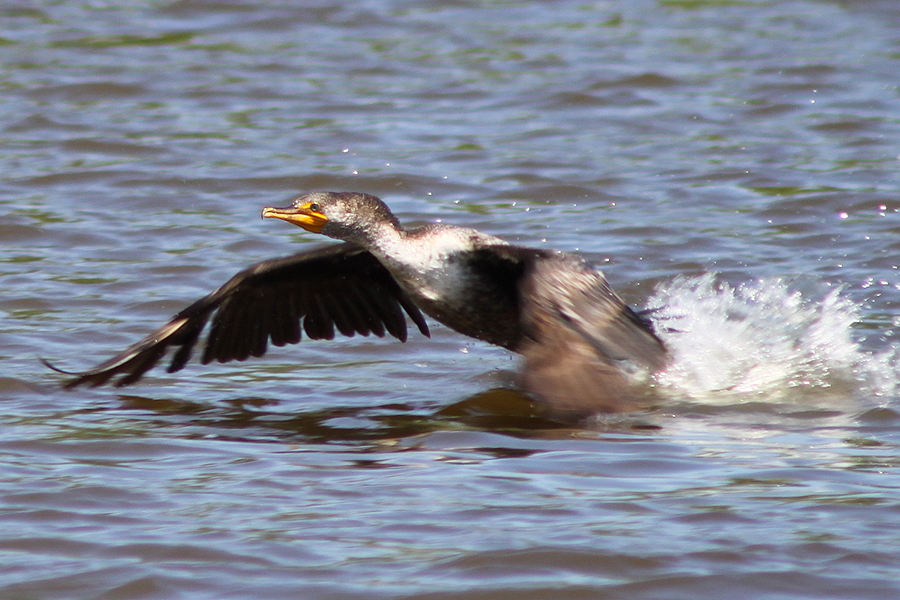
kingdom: Animalia
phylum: Chordata
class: Aves
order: Suliformes
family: Phalacrocoracidae
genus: Phalacrocorax
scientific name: Phalacrocorax auritus
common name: Double-crested cormorant
